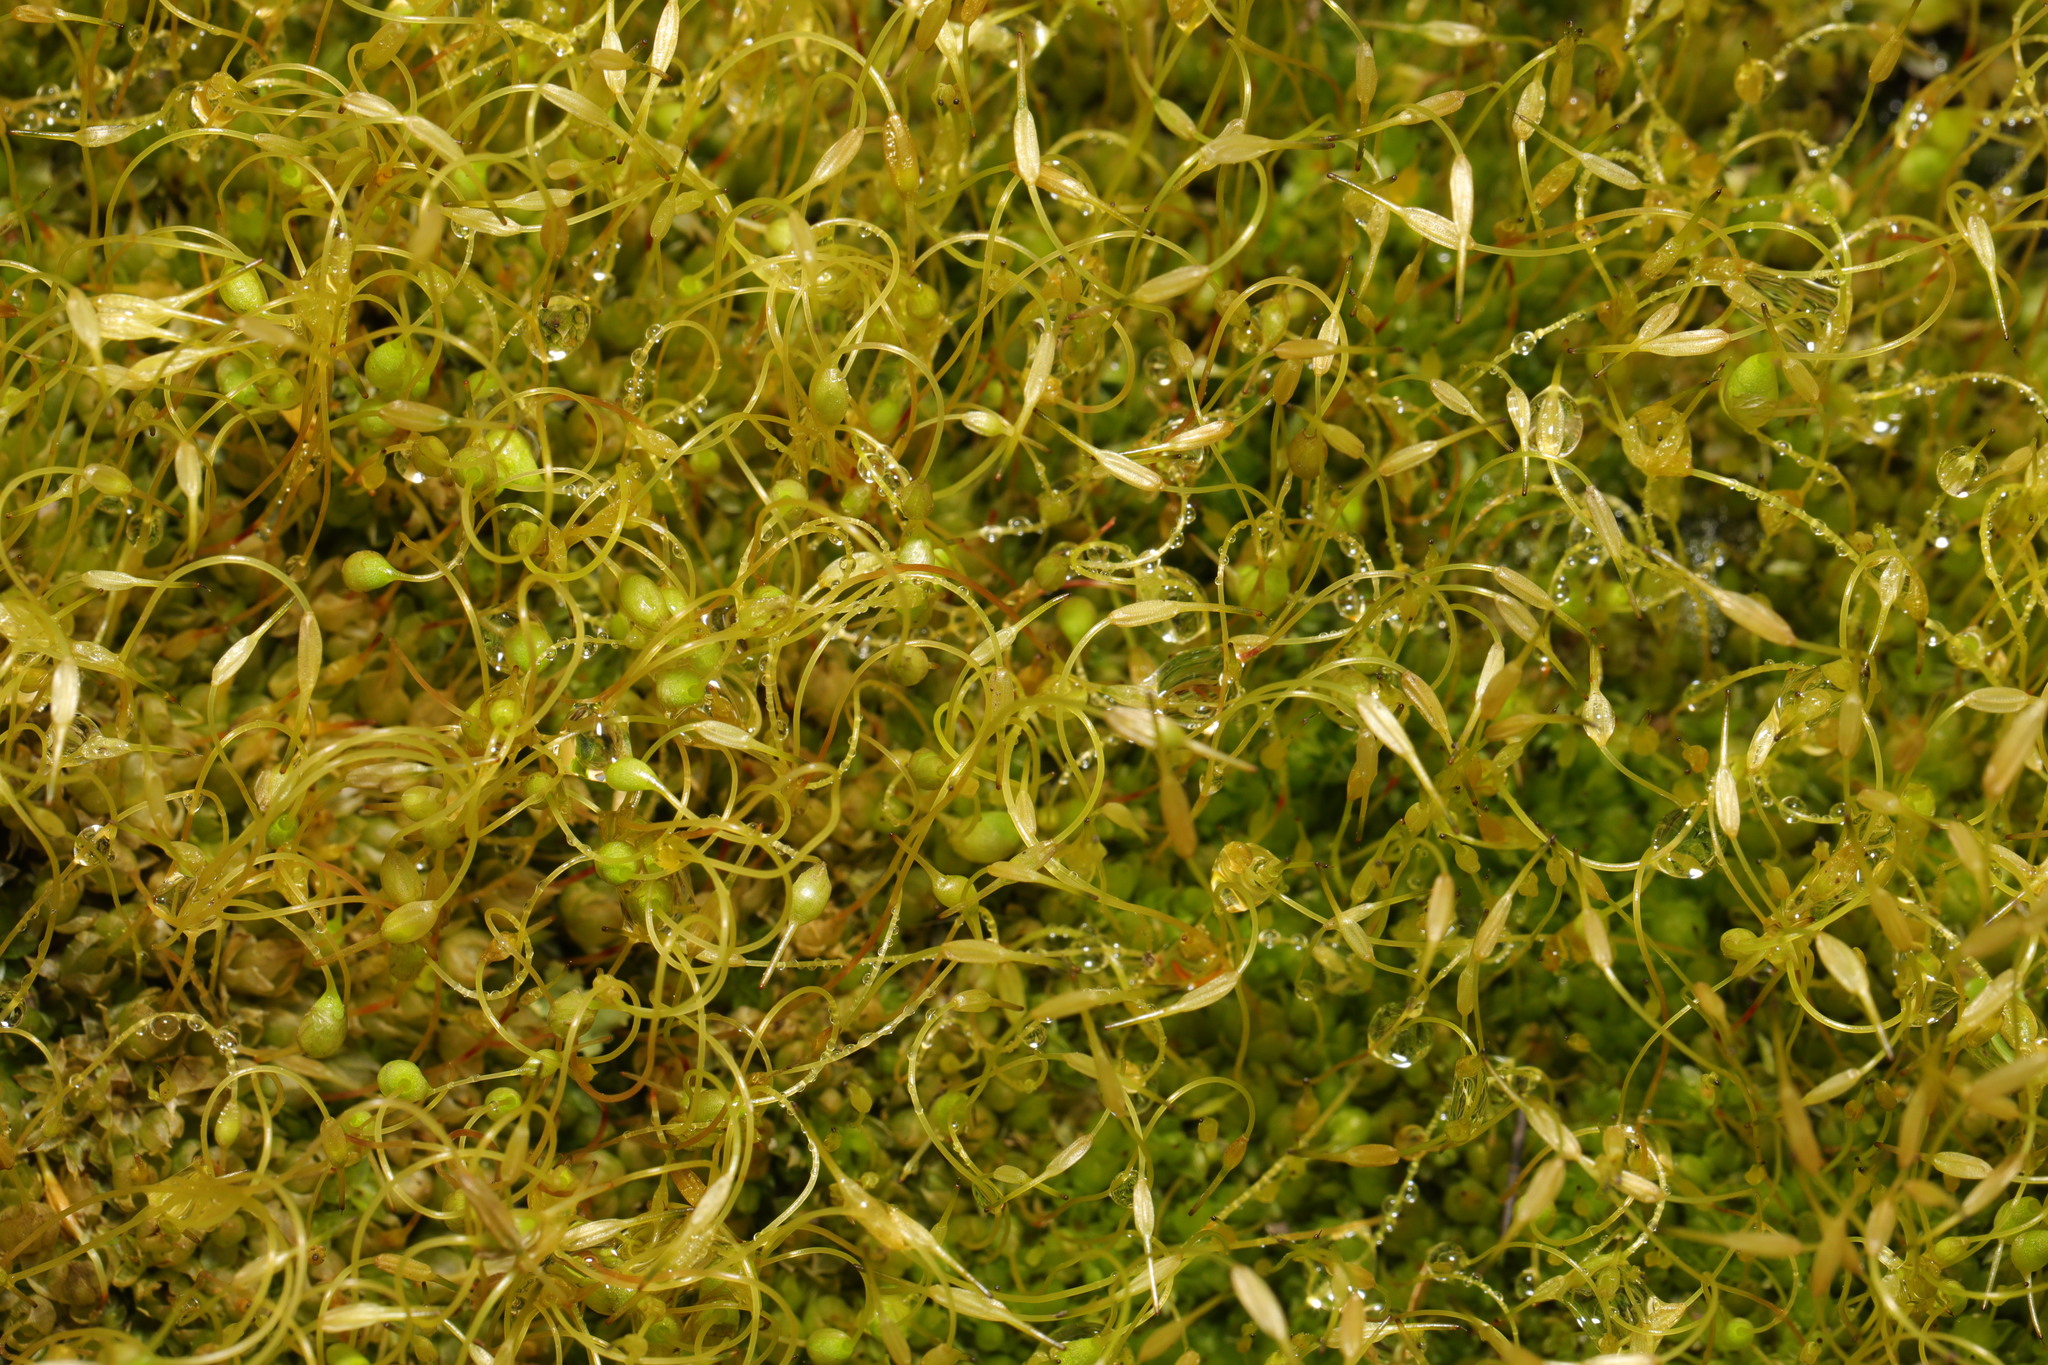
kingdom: Plantae
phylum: Bryophyta
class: Bryopsida
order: Funariales
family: Funariaceae
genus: Funaria
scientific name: Funaria hygrometrica
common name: Common cord moss
